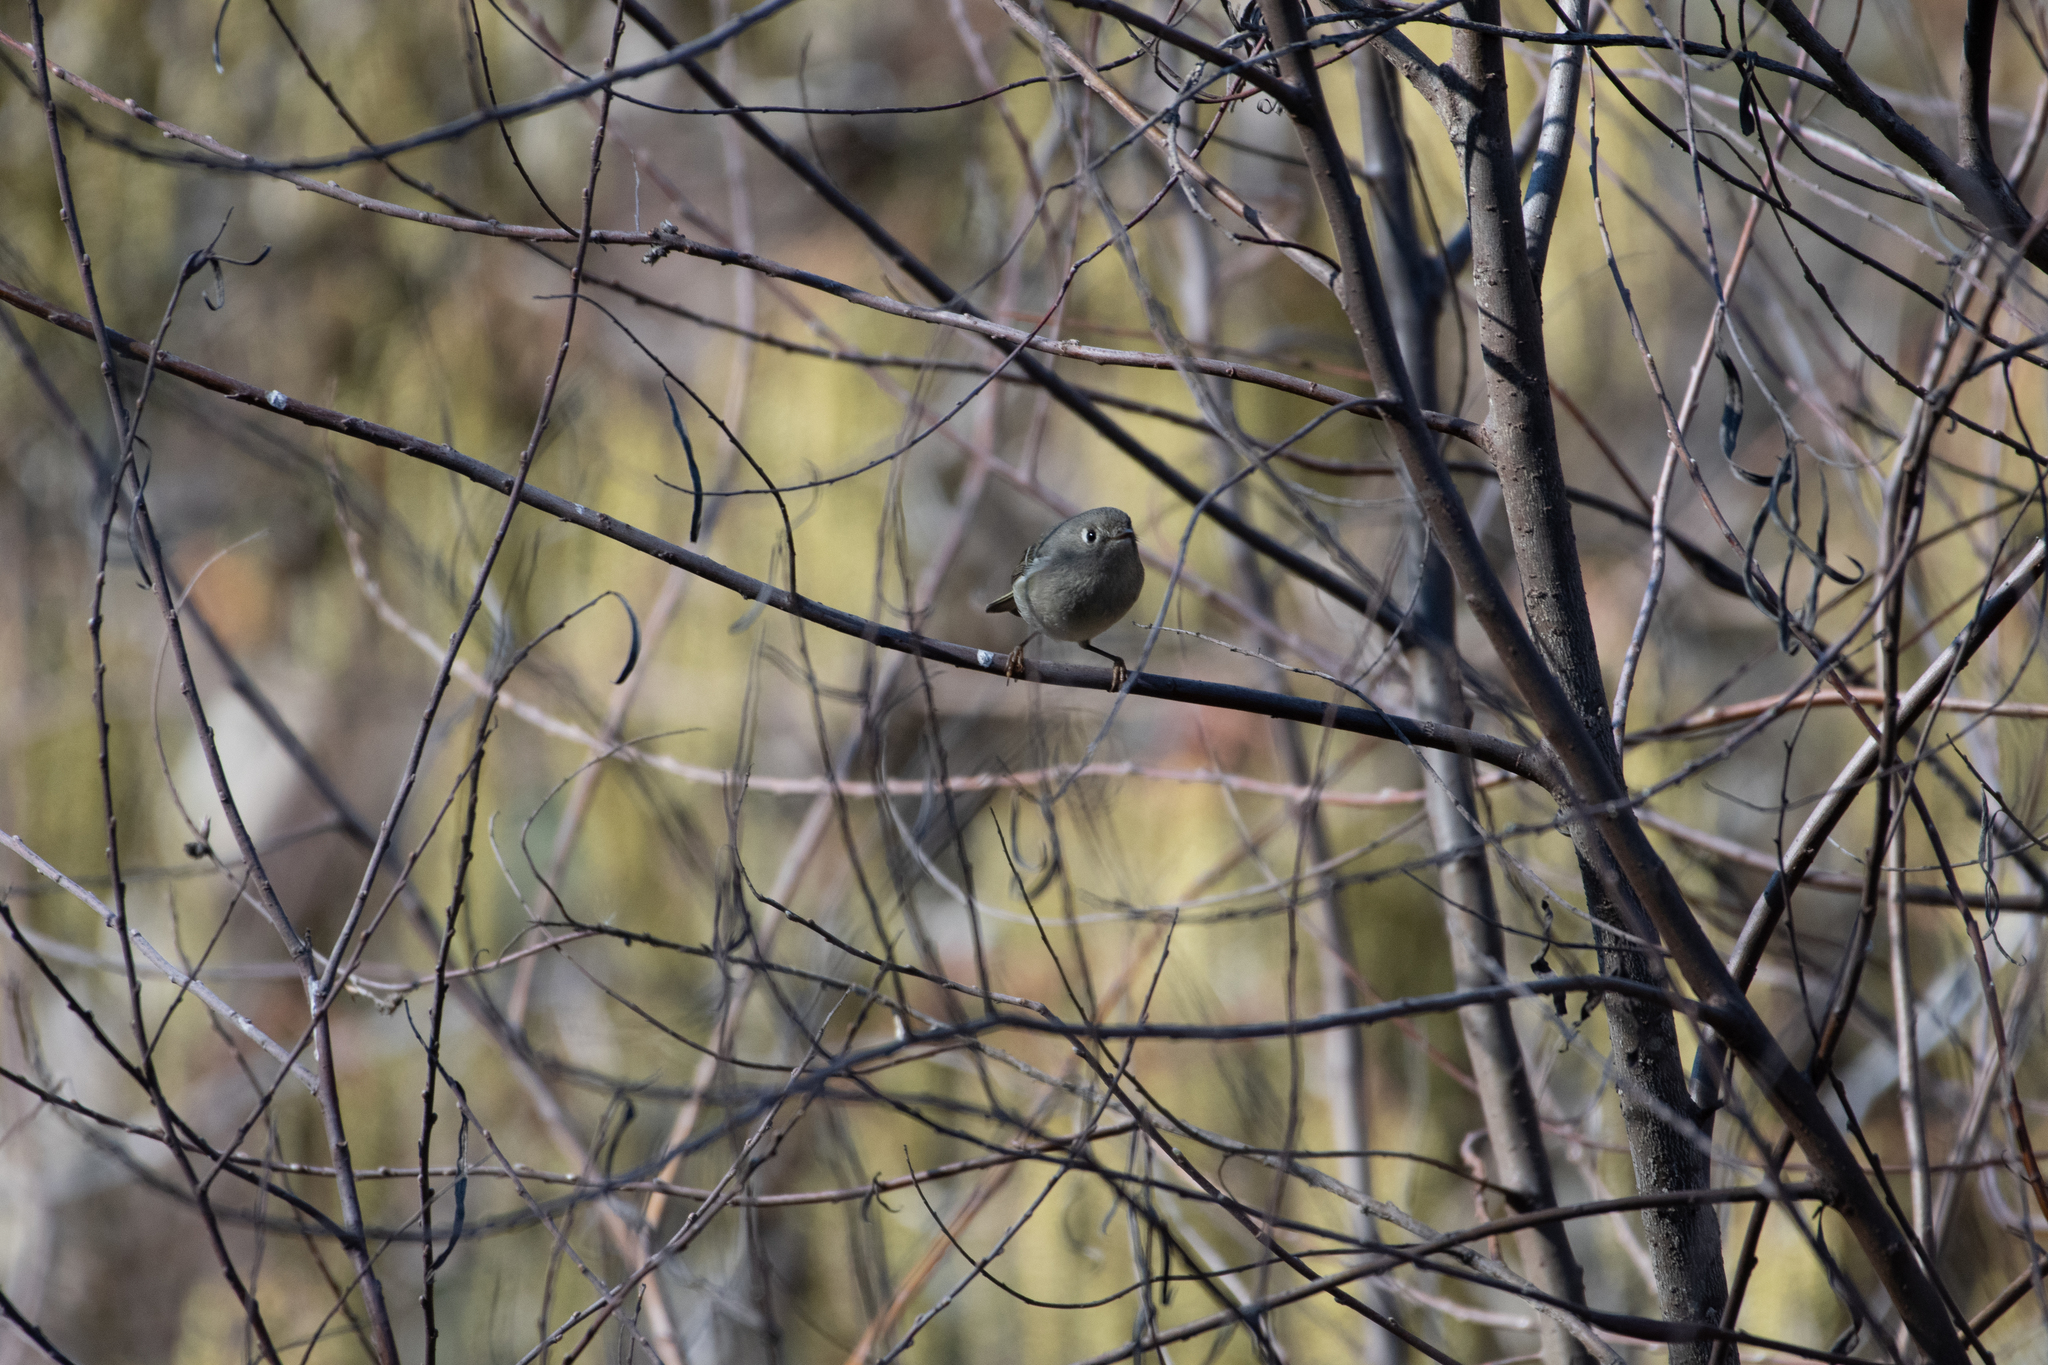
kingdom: Animalia
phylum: Chordata
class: Aves
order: Passeriformes
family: Regulidae
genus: Regulus
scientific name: Regulus calendula
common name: Ruby-crowned kinglet
